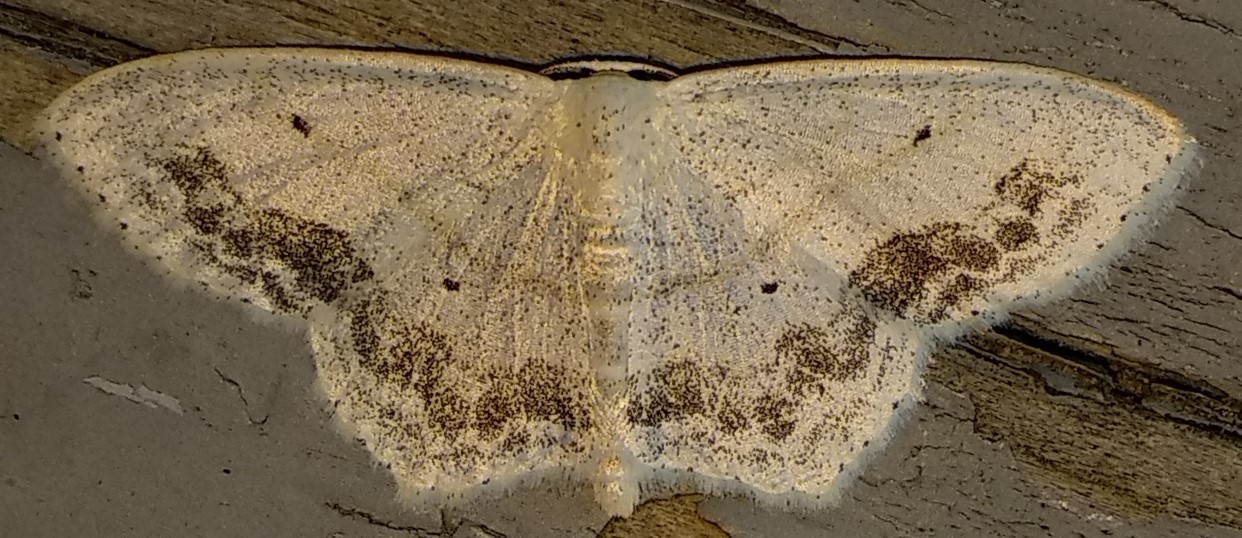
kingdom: Animalia
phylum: Arthropoda
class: Insecta
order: Lepidoptera
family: Geometridae
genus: Scopula
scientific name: Scopula limboundata
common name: Large lace border
